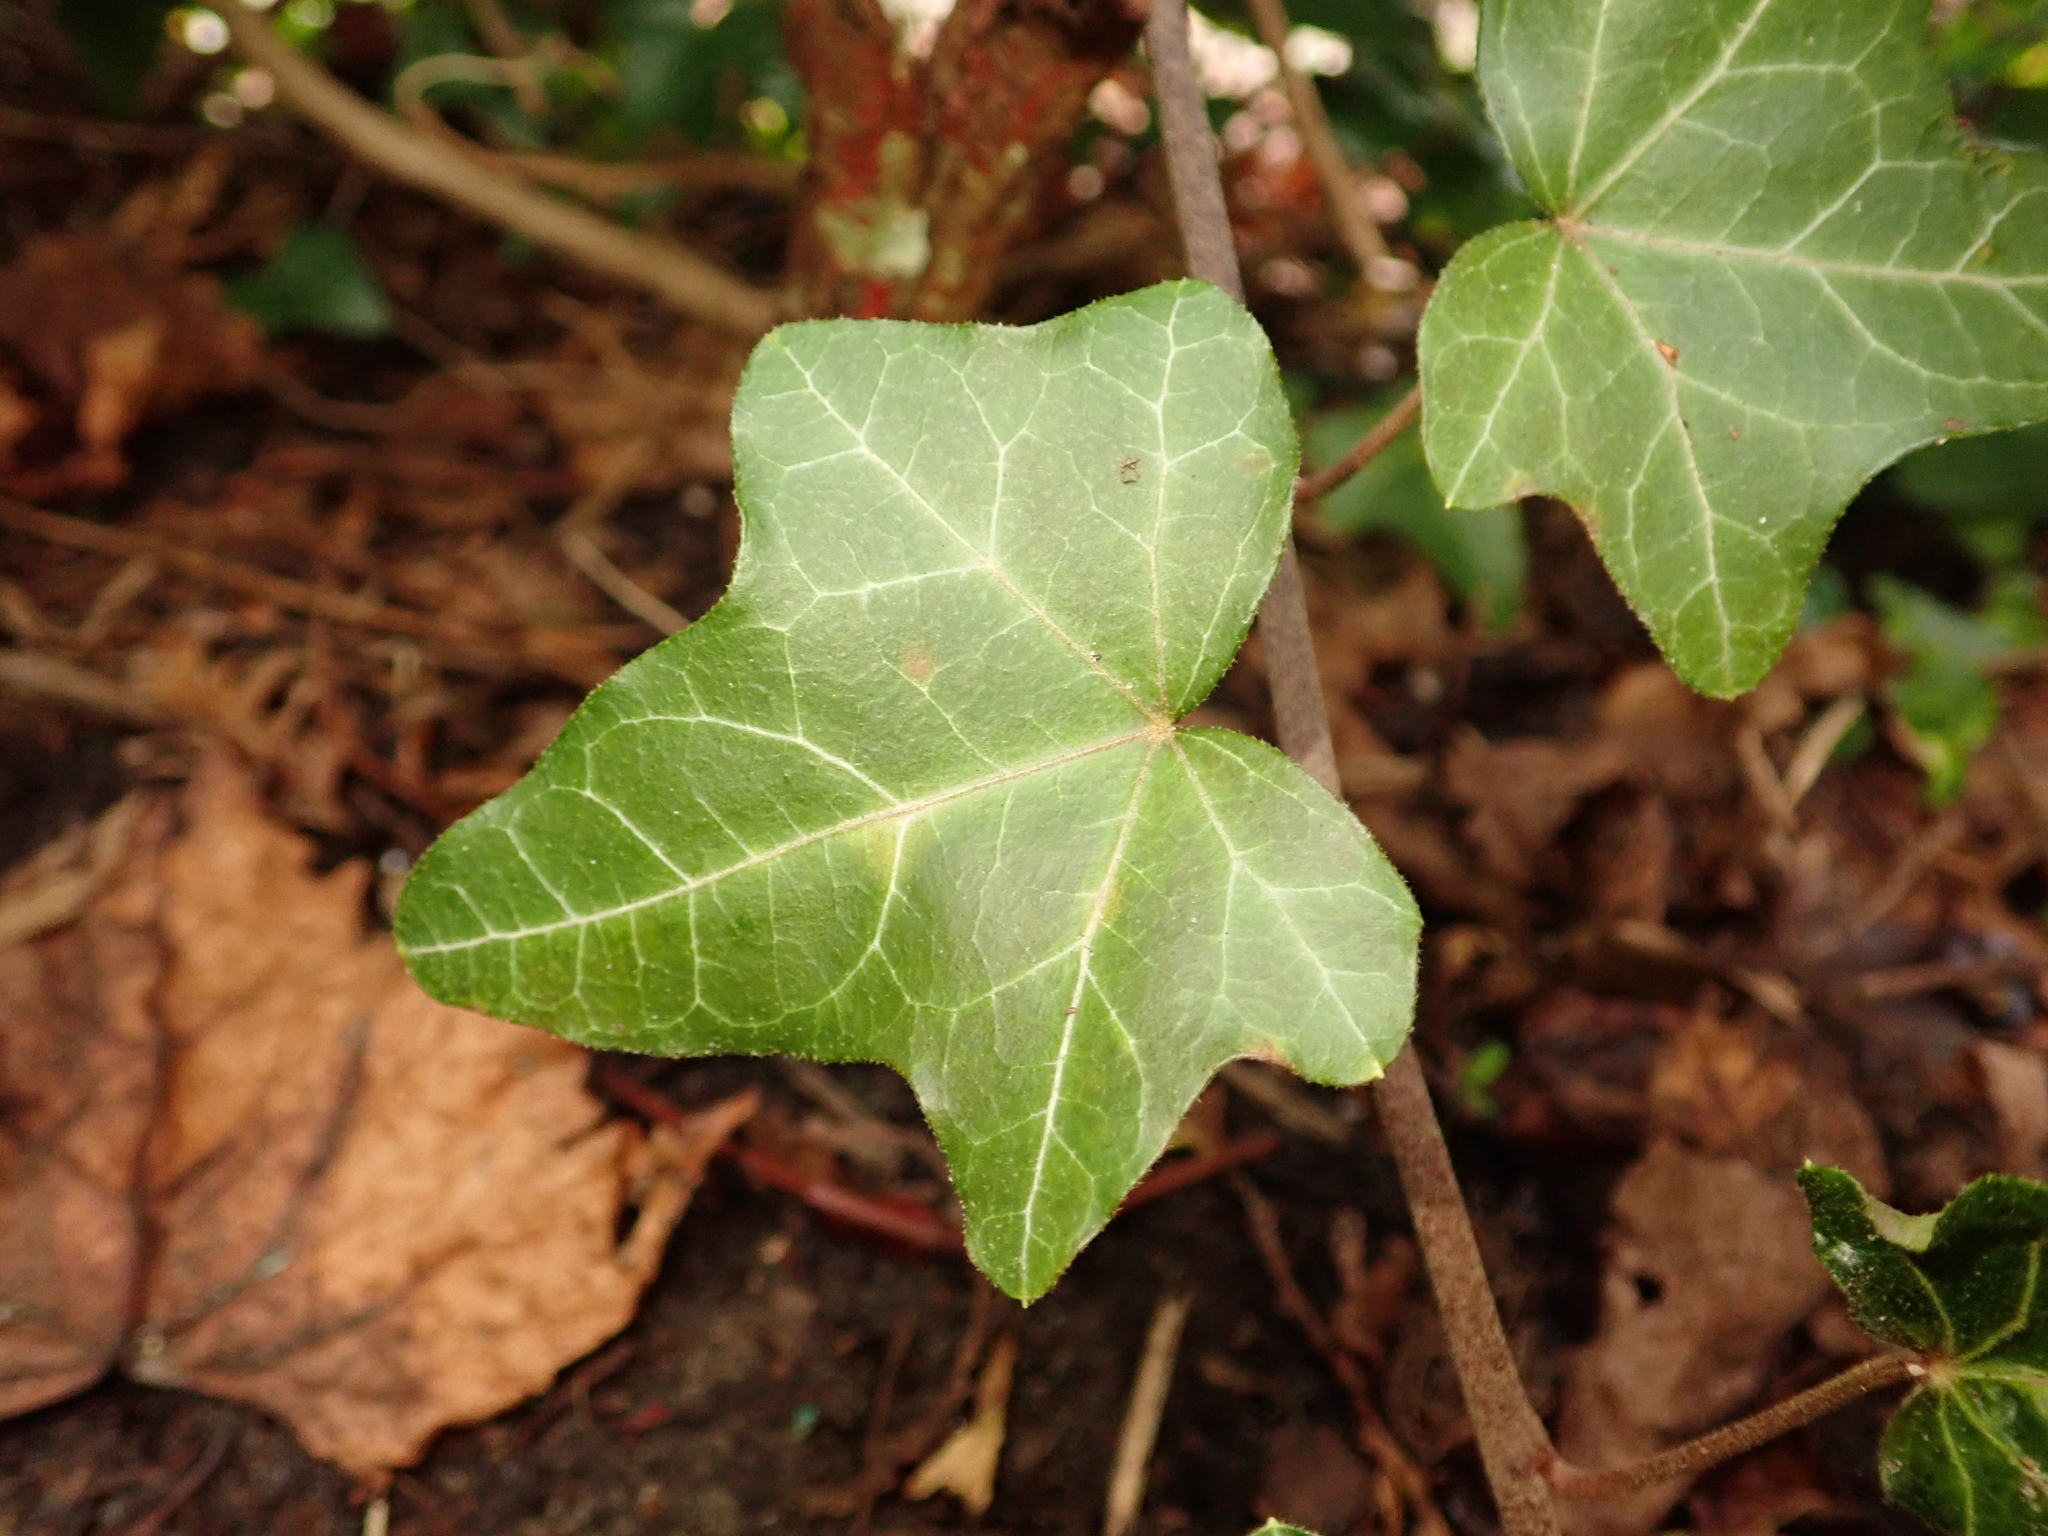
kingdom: Plantae
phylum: Tracheophyta
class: Magnoliopsida
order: Apiales
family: Araliaceae
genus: Hedera
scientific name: Hedera helix
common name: Ivy
